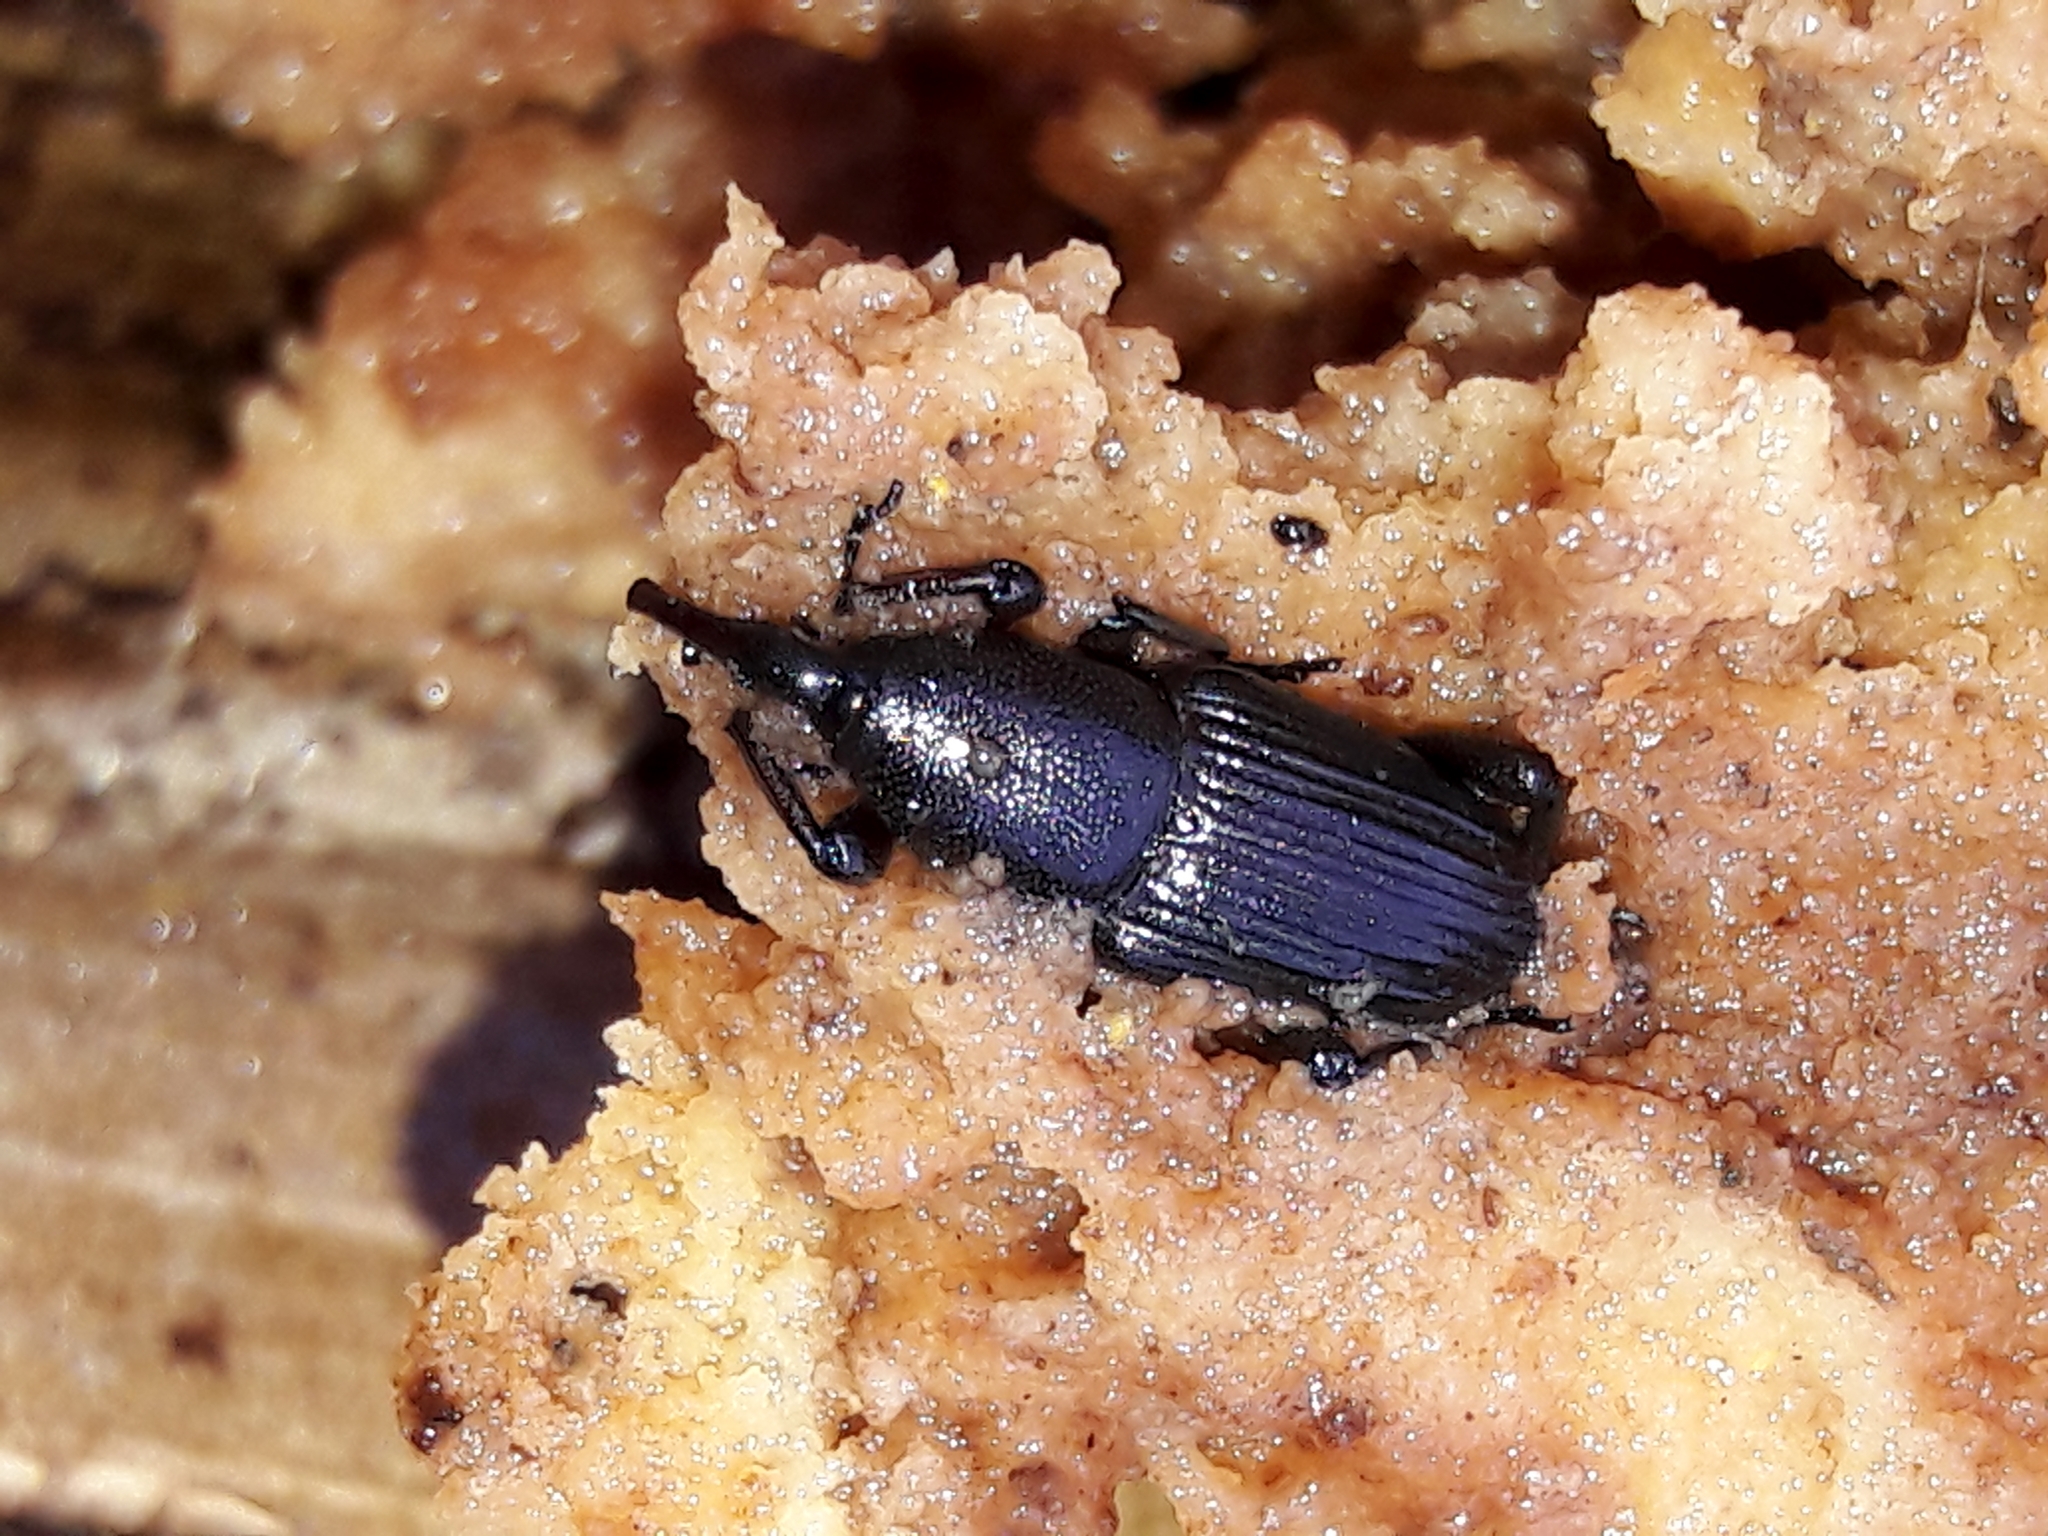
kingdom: Animalia
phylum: Arthropoda
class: Insecta
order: Coleoptera
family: Dryophthoridae
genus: Cosmopolites
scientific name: Cosmopolites sordidus
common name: Palm weevil
